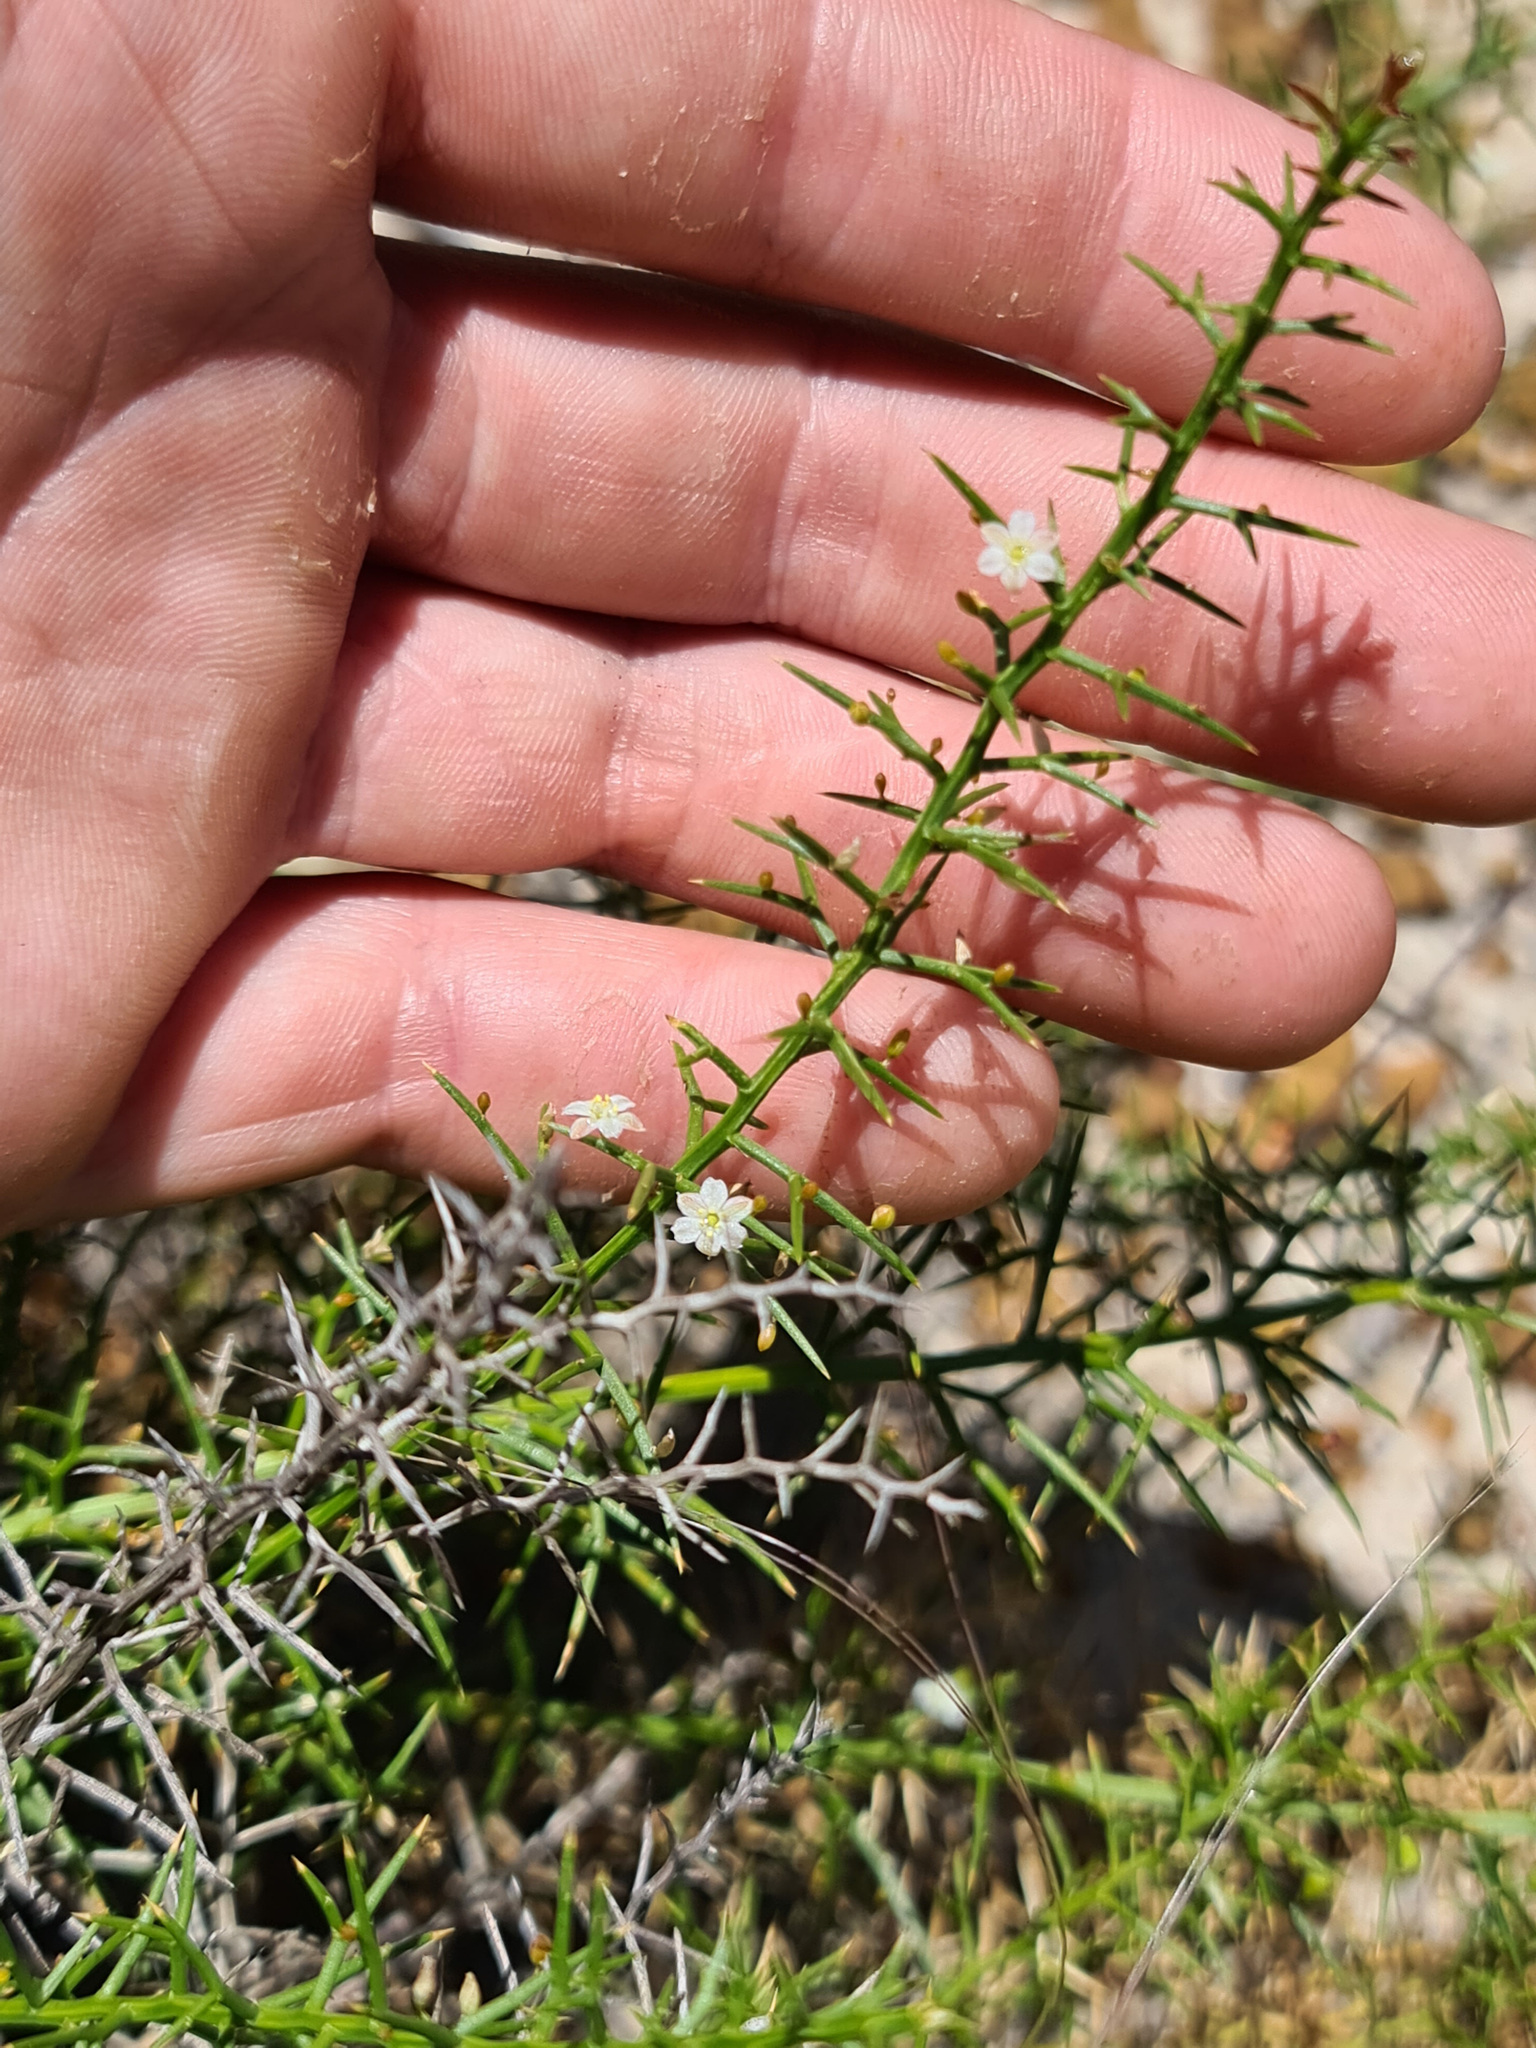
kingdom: Plantae
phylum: Tracheophyta
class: Liliopsida
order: Asparagales
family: Asphodelaceae
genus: Corynotheca
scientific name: Corynotheca acanthoclada
